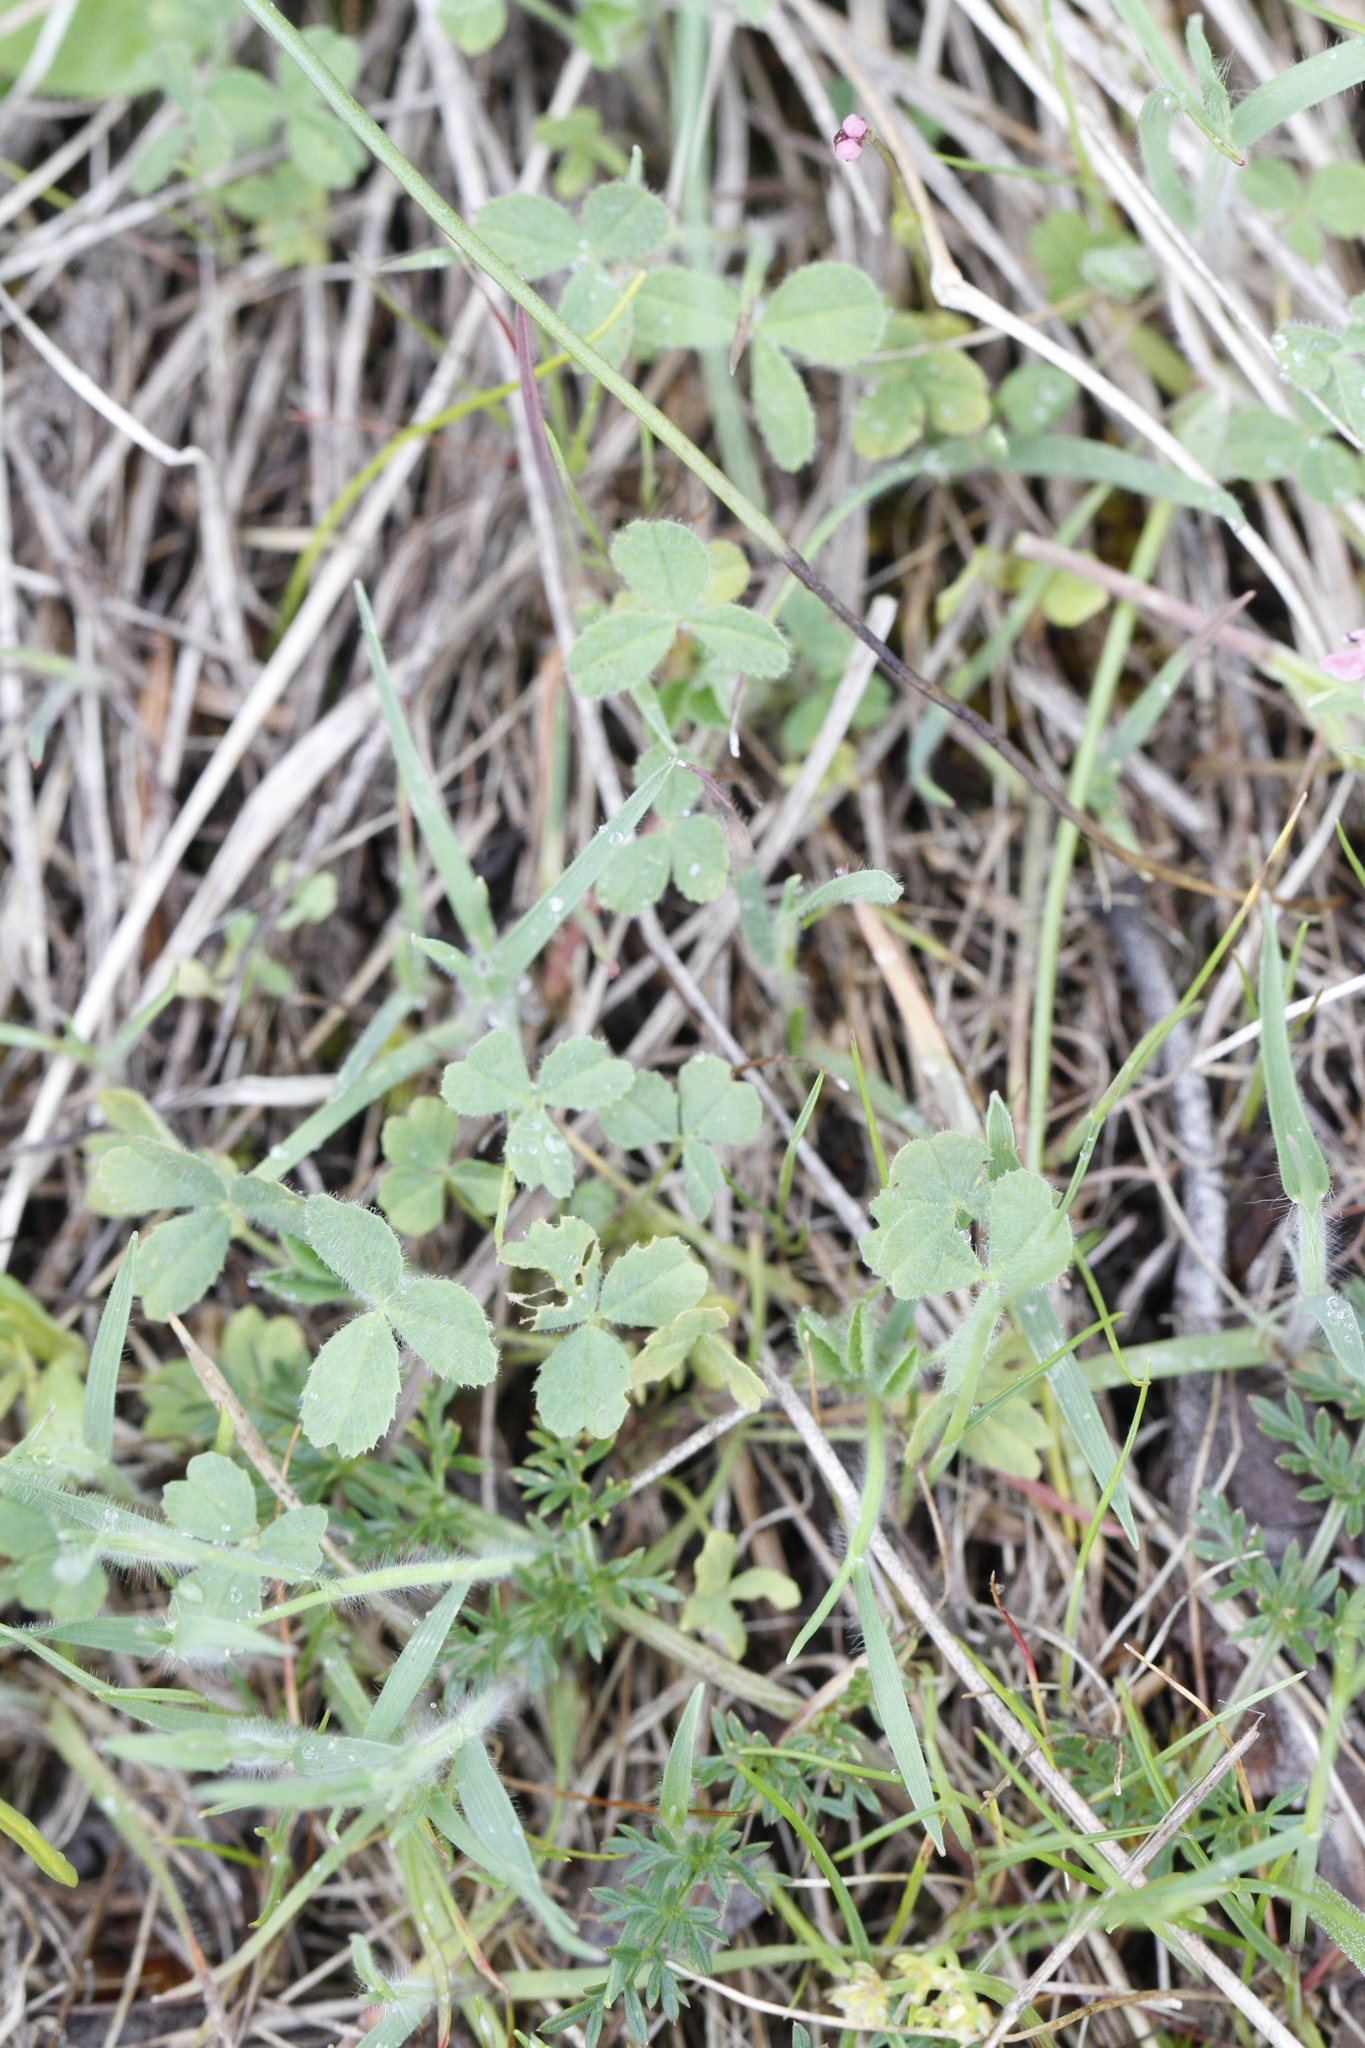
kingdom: Plantae
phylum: Tracheophyta
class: Magnoliopsida
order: Fabales
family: Fabaceae
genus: Trifolium
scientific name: Trifolium microcephalum
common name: Maiden clover
